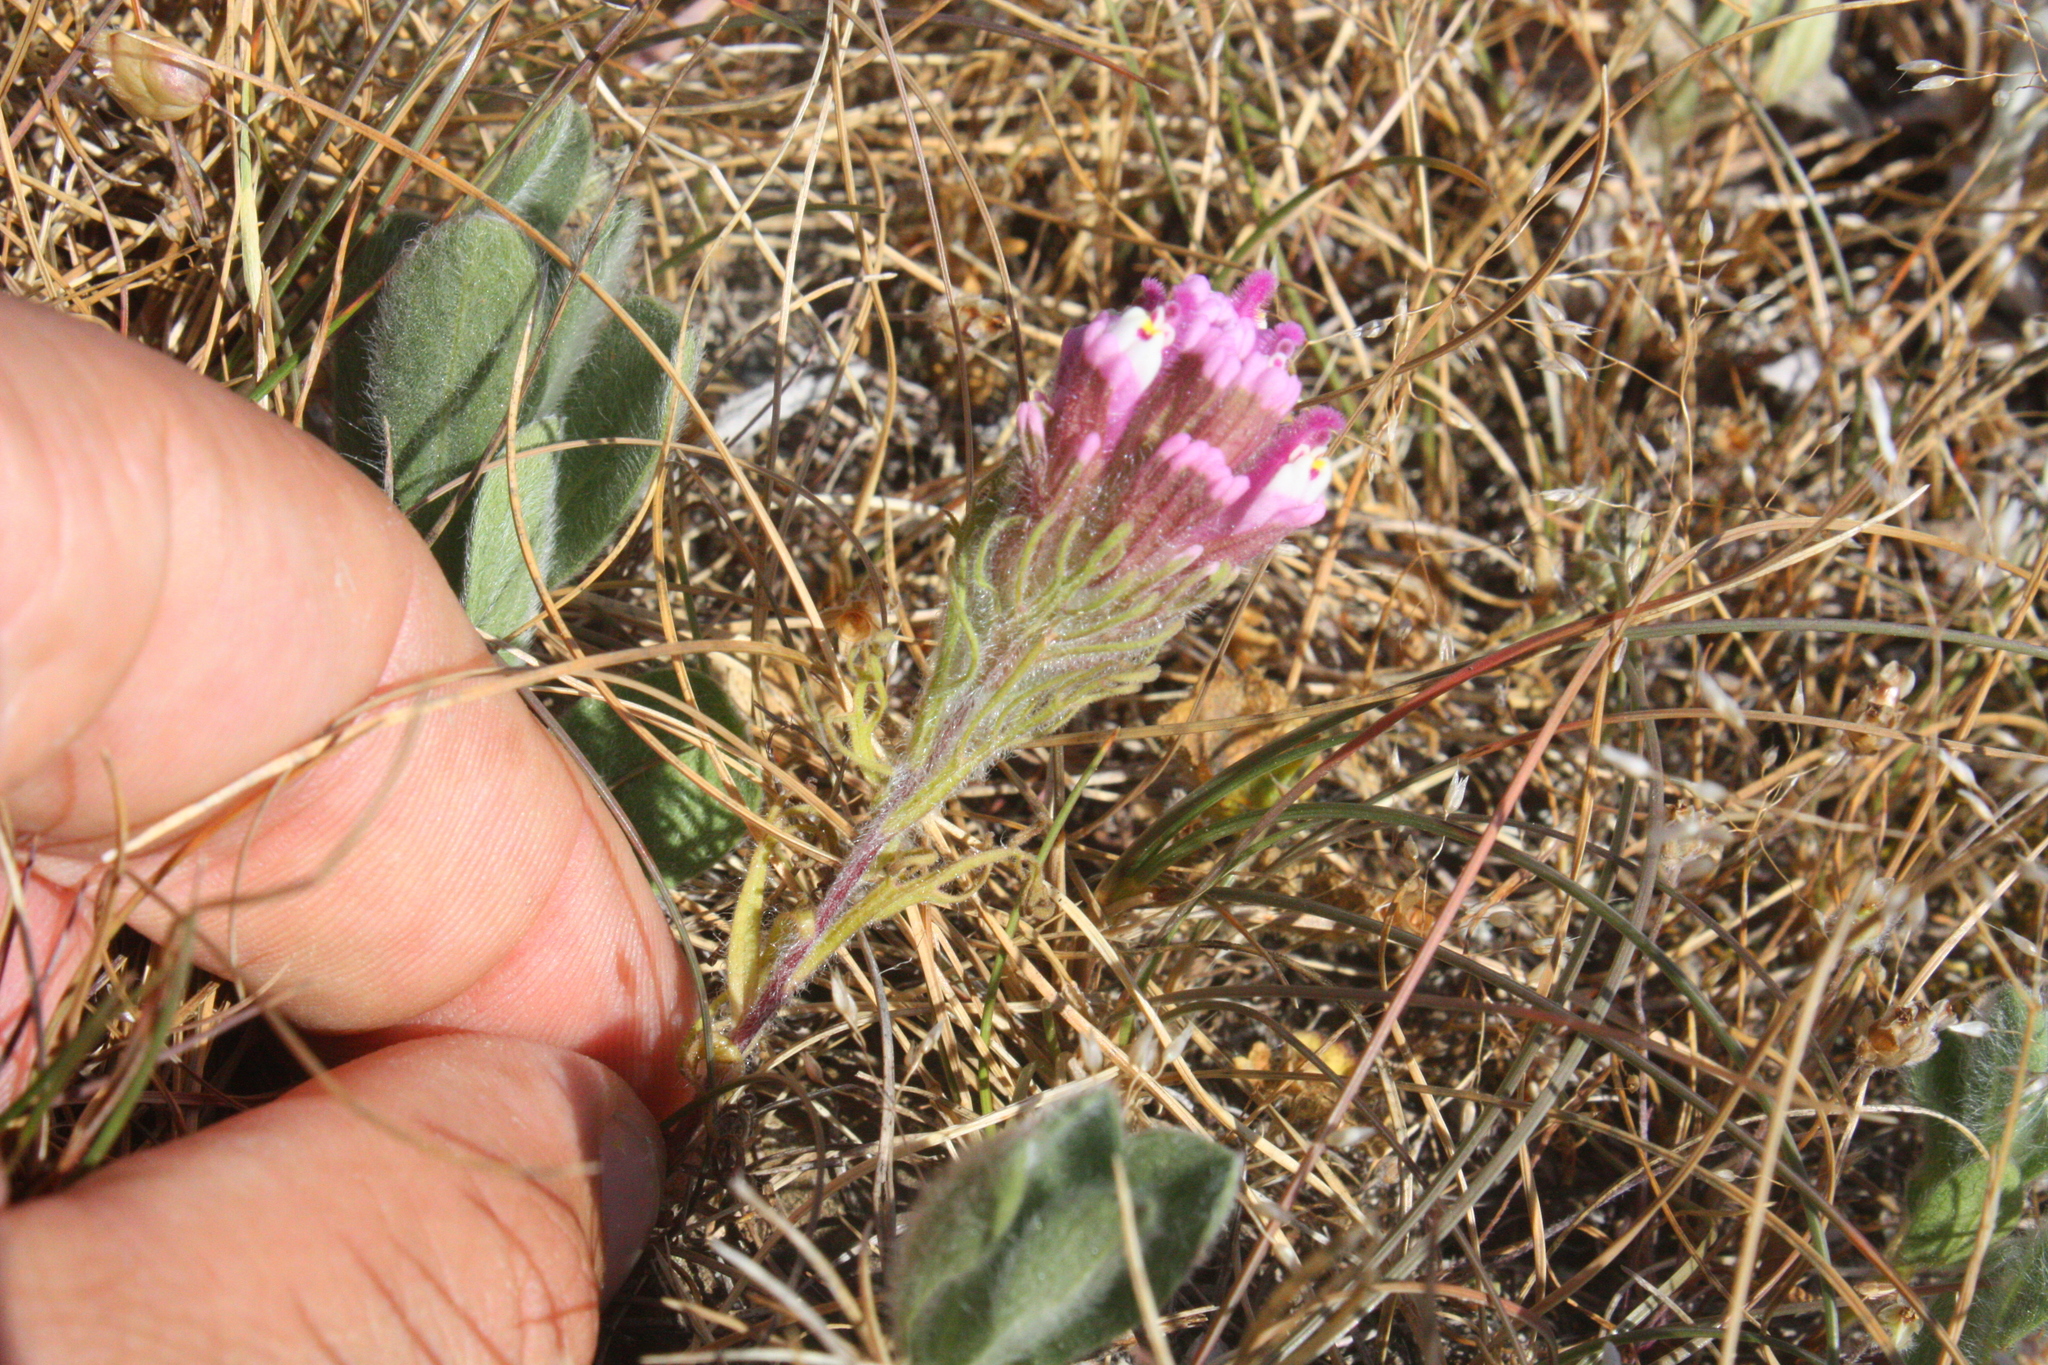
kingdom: Plantae
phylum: Tracheophyta
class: Magnoliopsida
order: Lamiales
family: Orobanchaceae
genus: Castilleja
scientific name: Castilleja exserta
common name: Purple owl-clover
